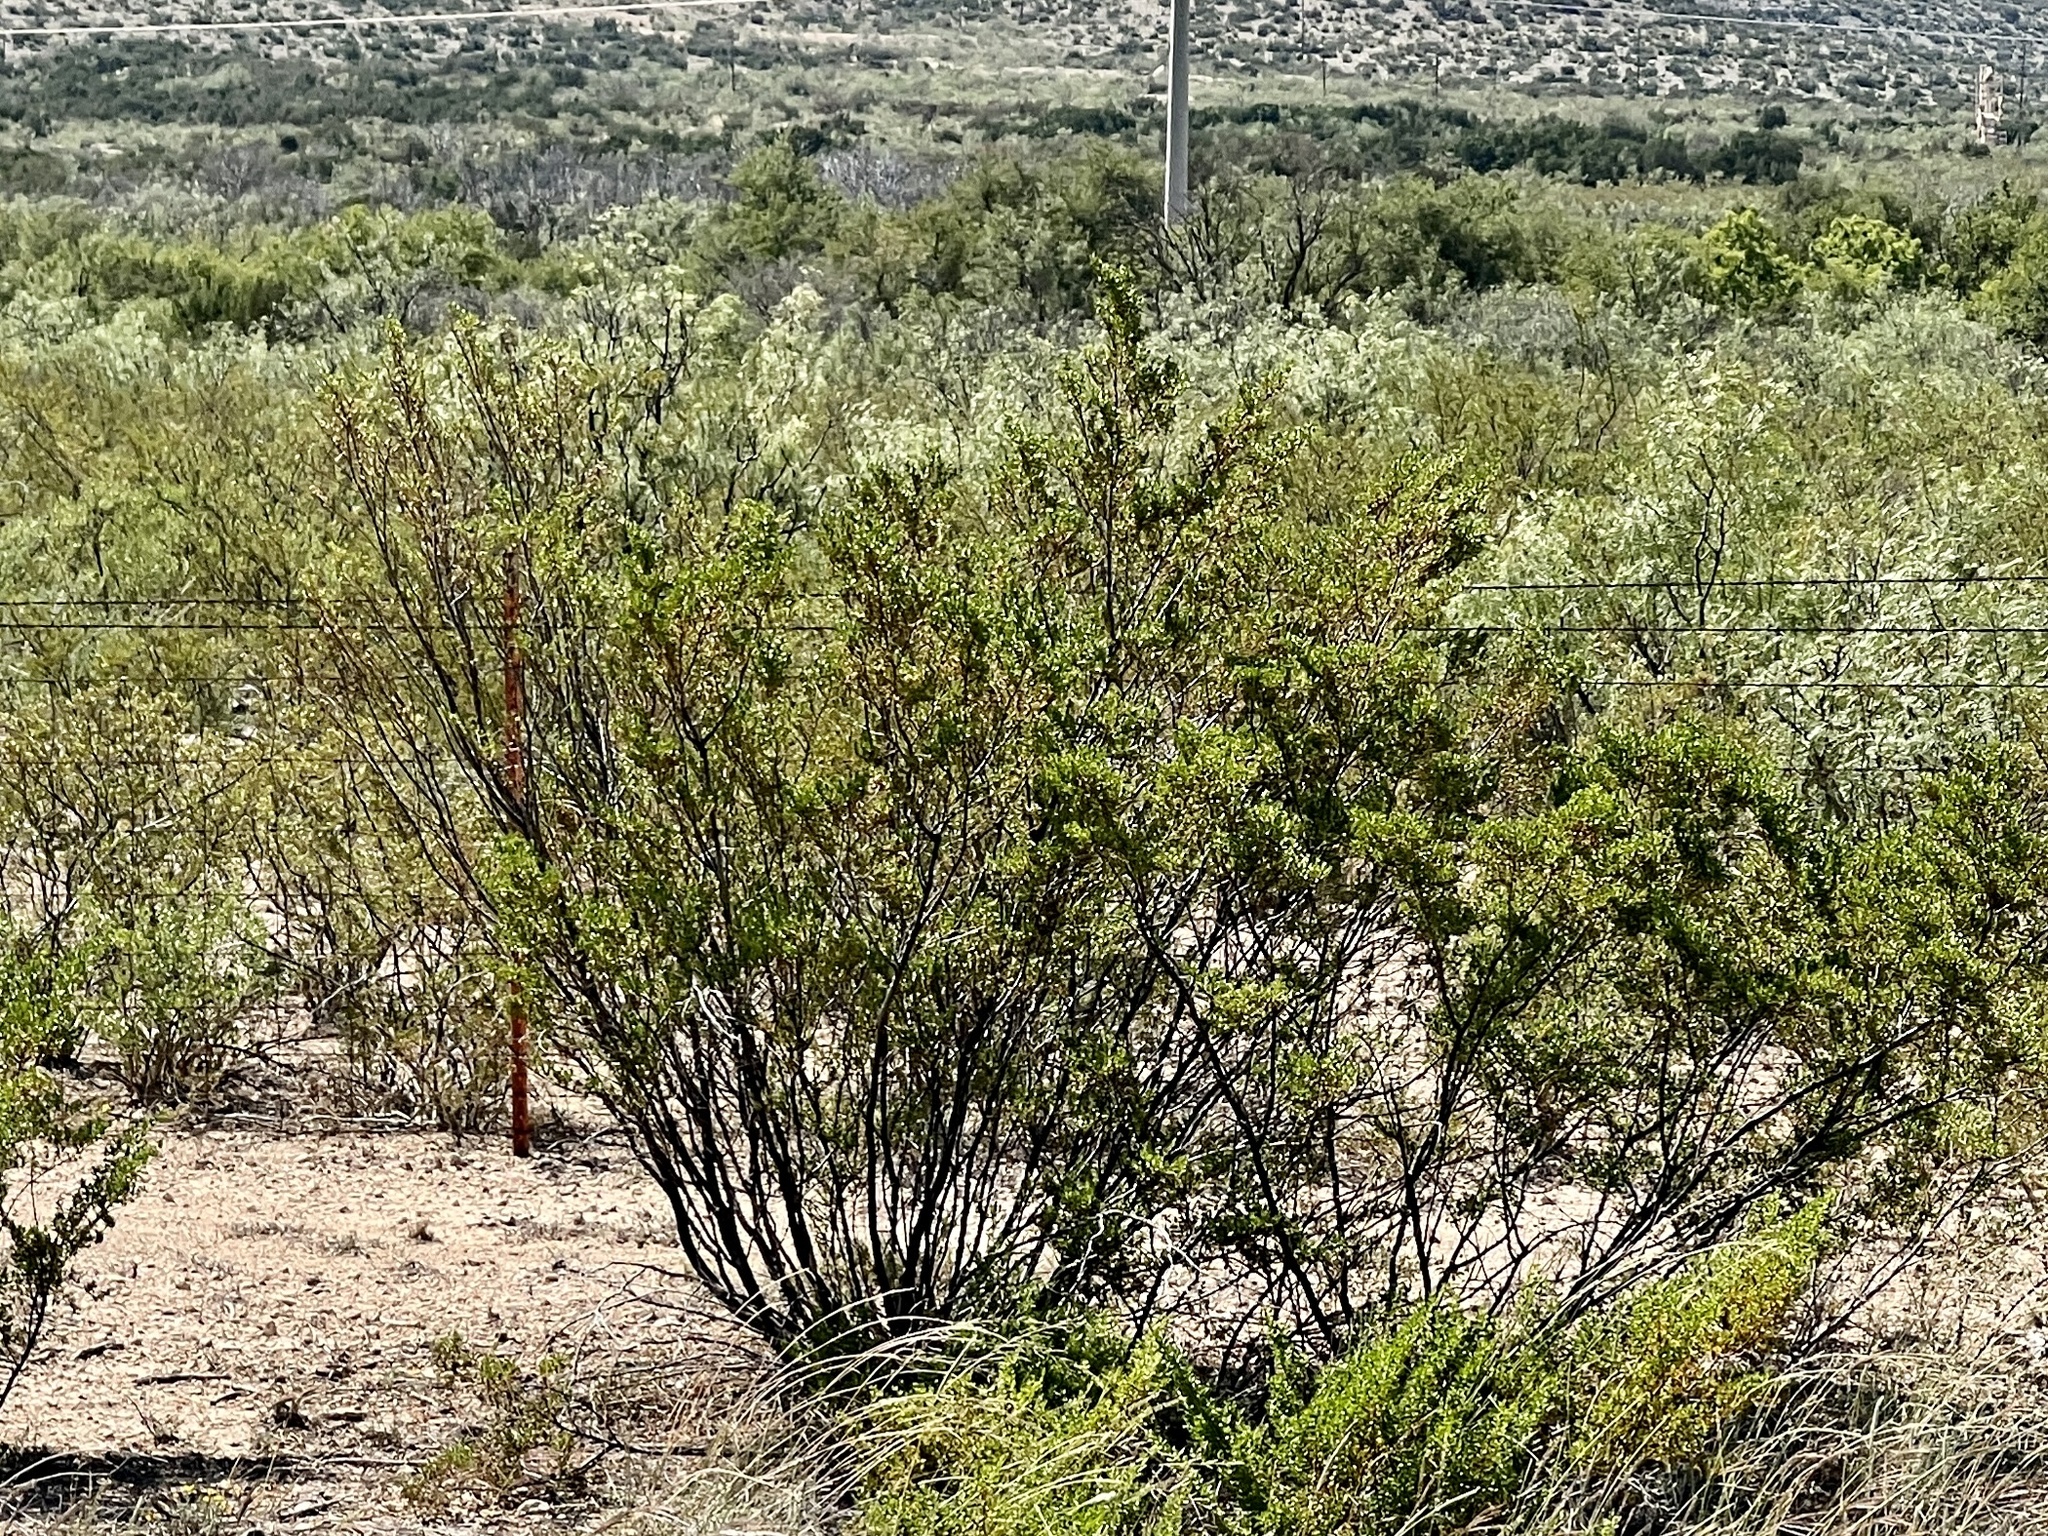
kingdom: Plantae
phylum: Tracheophyta
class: Magnoliopsida
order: Zygophyllales
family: Zygophyllaceae
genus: Larrea
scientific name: Larrea tridentata
